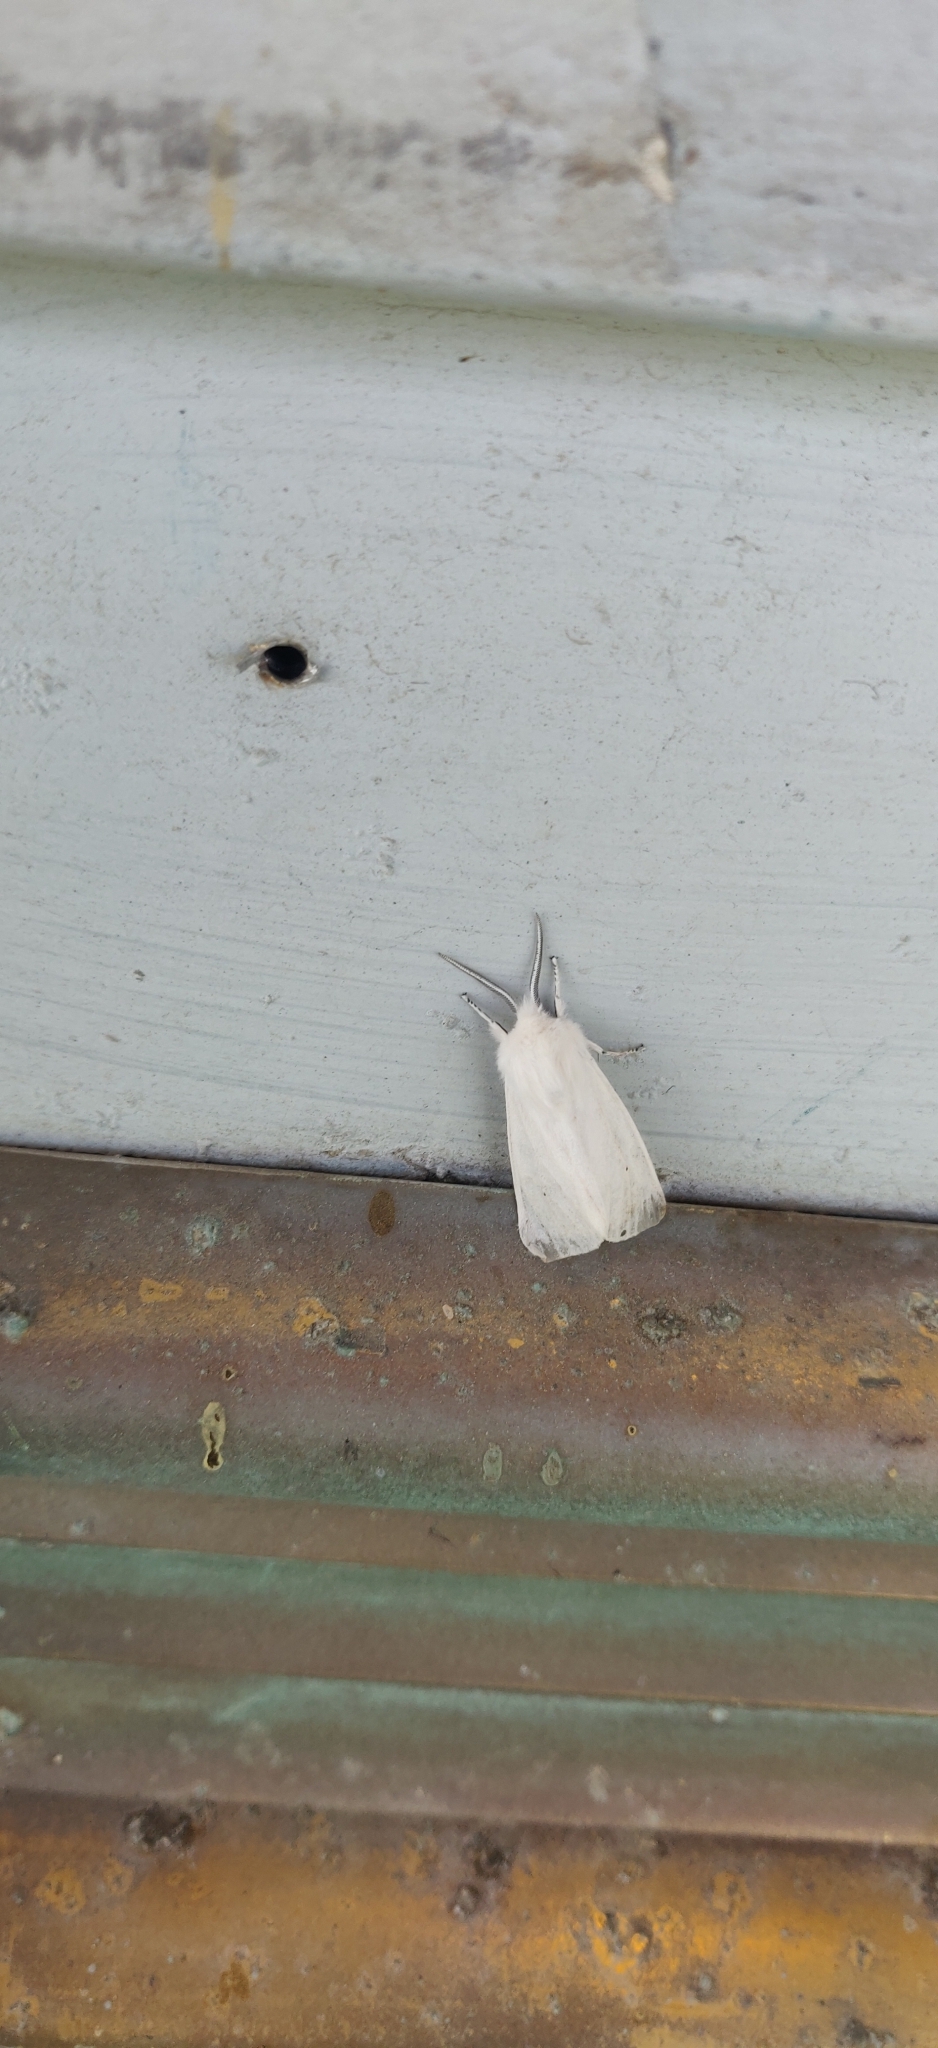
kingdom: Animalia
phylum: Arthropoda
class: Insecta
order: Lepidoptera
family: Erebidae
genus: Spilosoma
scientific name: Spilosoma virginica
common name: Virginia tiger moth
